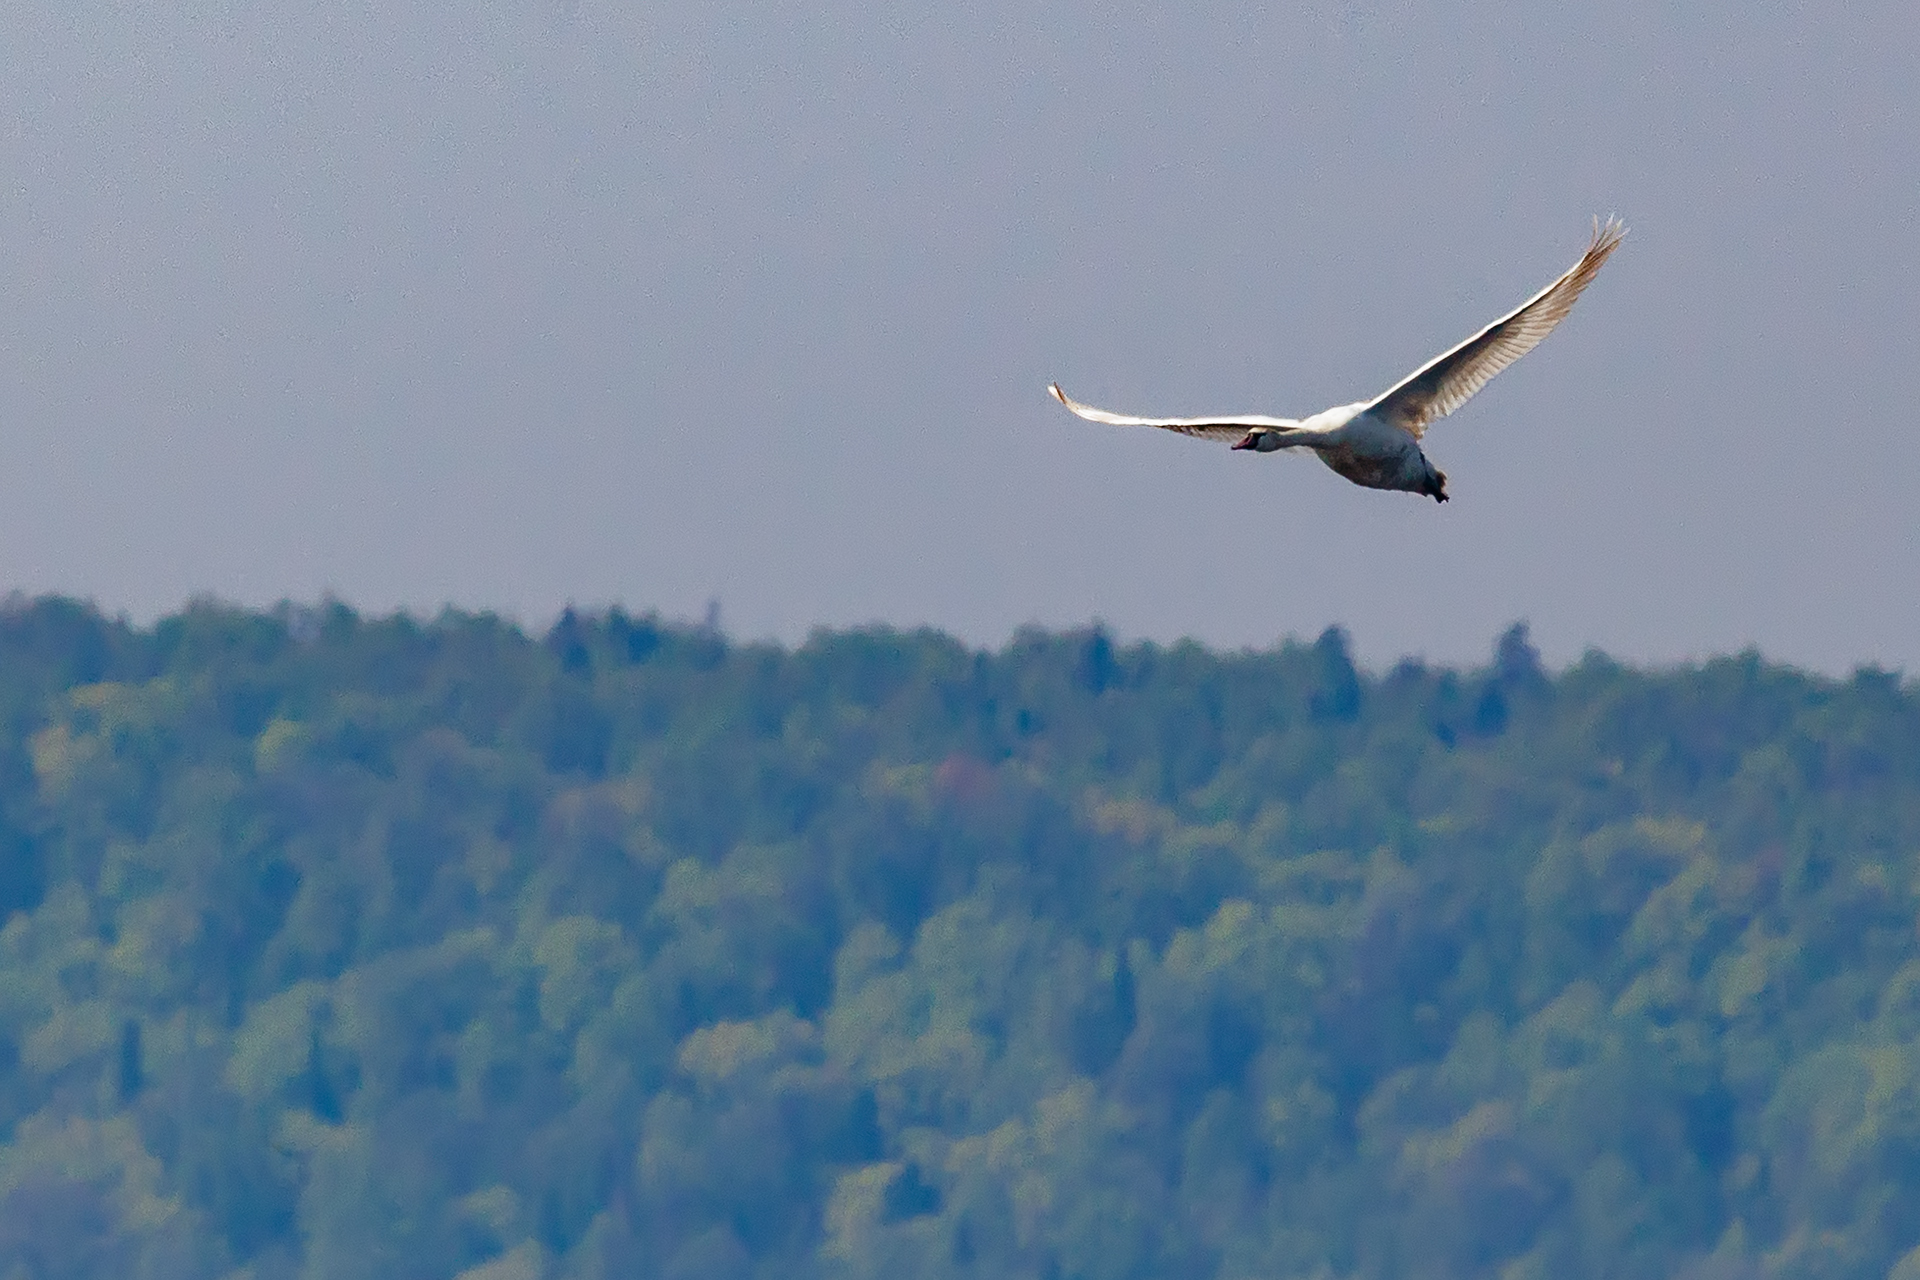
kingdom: Animalia
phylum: Chordata
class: Aves
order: Anseriformes
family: Anatidae
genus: Cygnus
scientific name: Cygnus olor
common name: Mute swan
